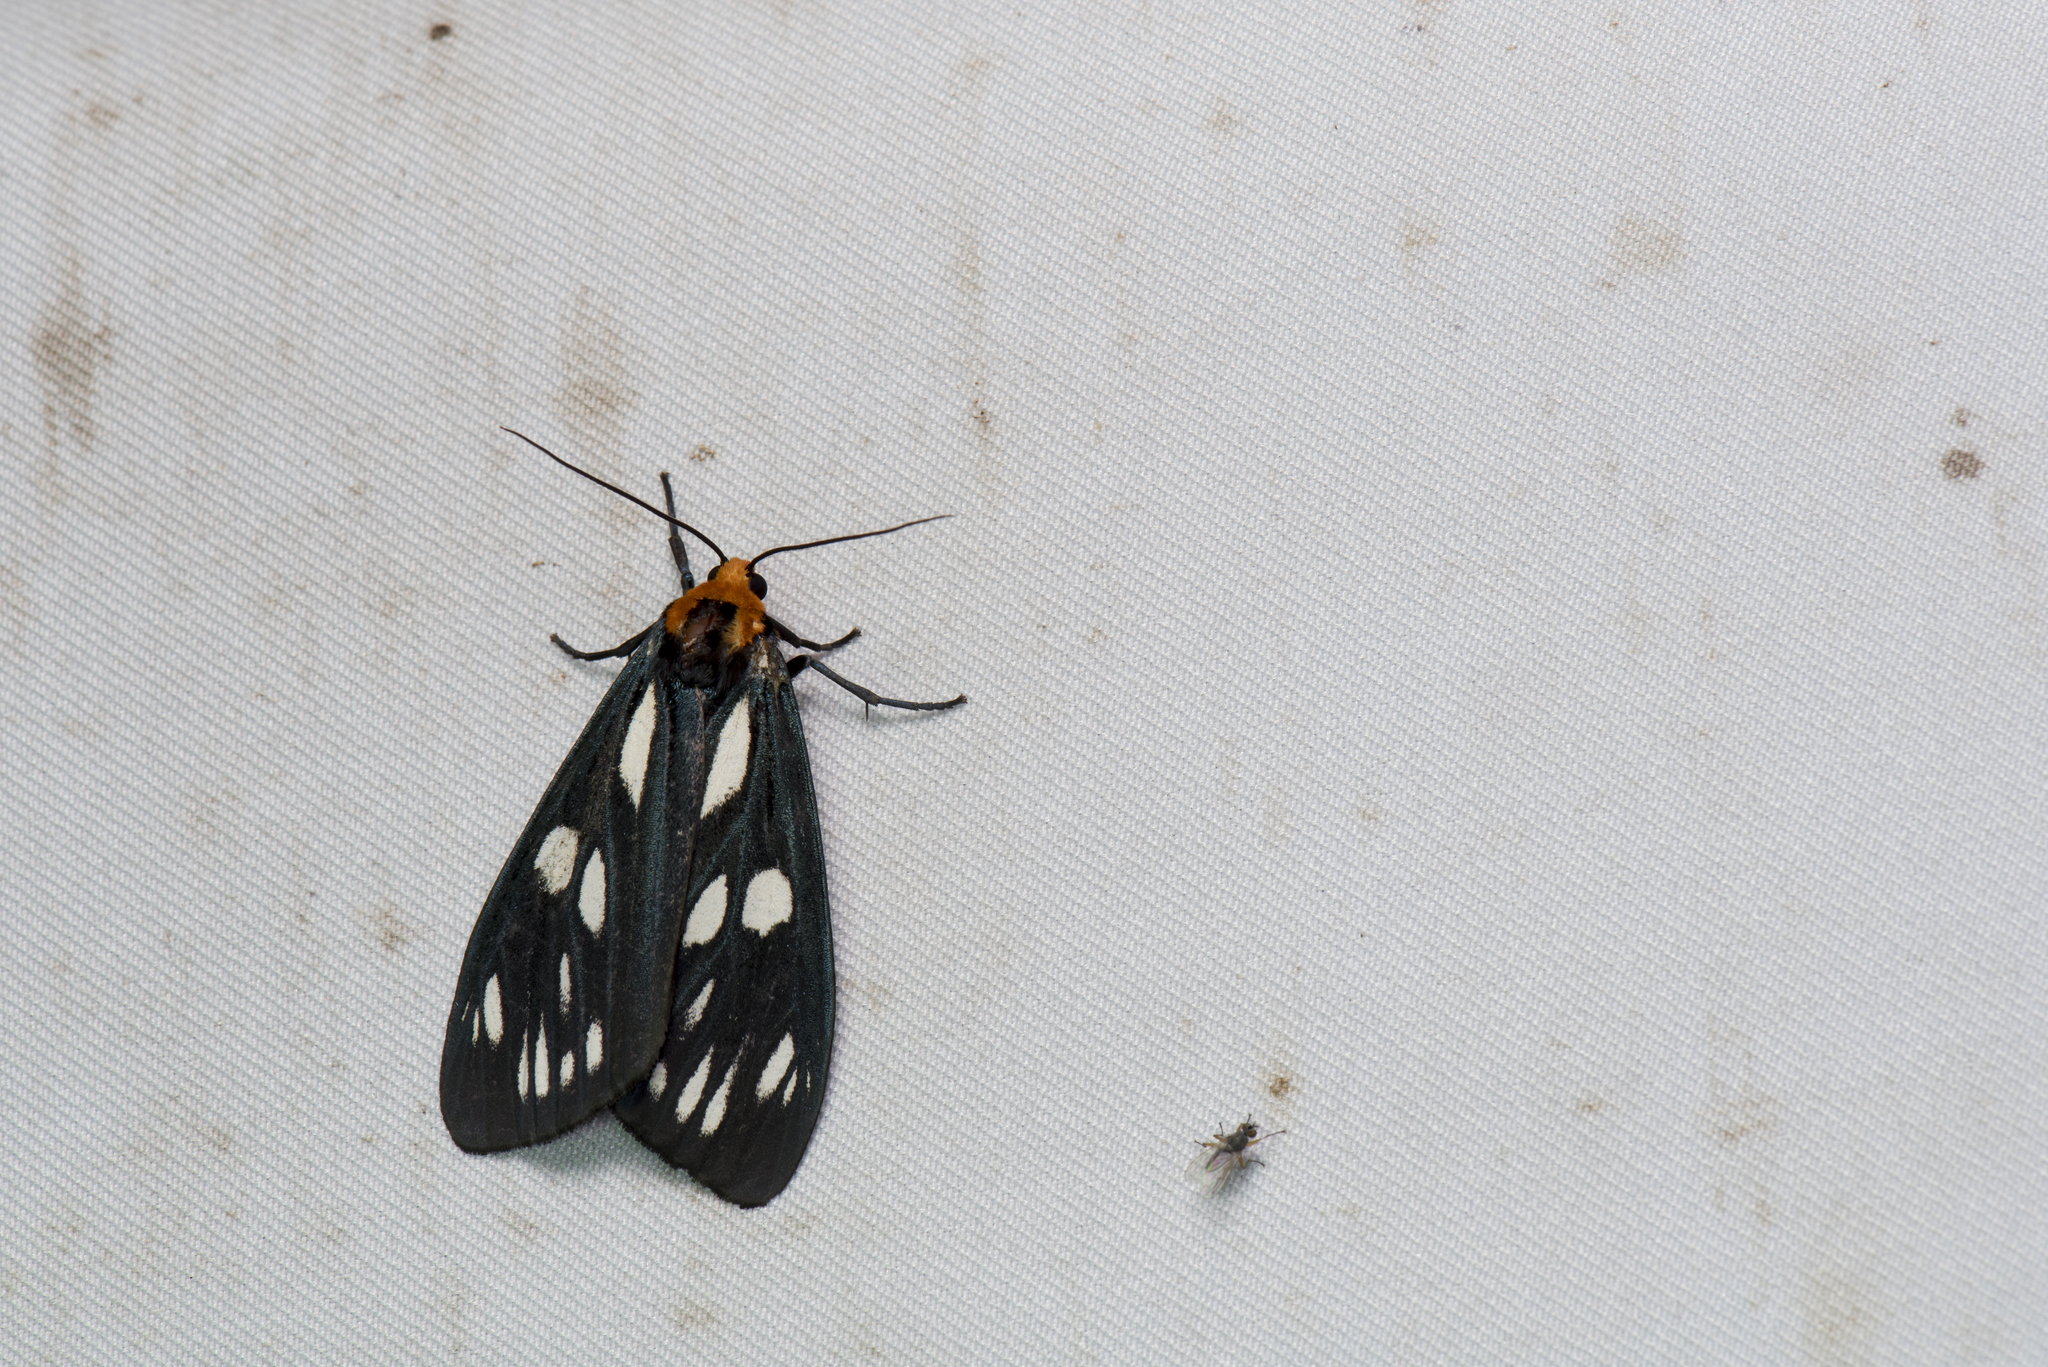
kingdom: Animalia
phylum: Arthropoda
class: Insecta
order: Lepidoptera
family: Erebidae
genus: Macrobrochis
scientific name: Macrobrochis gigas
